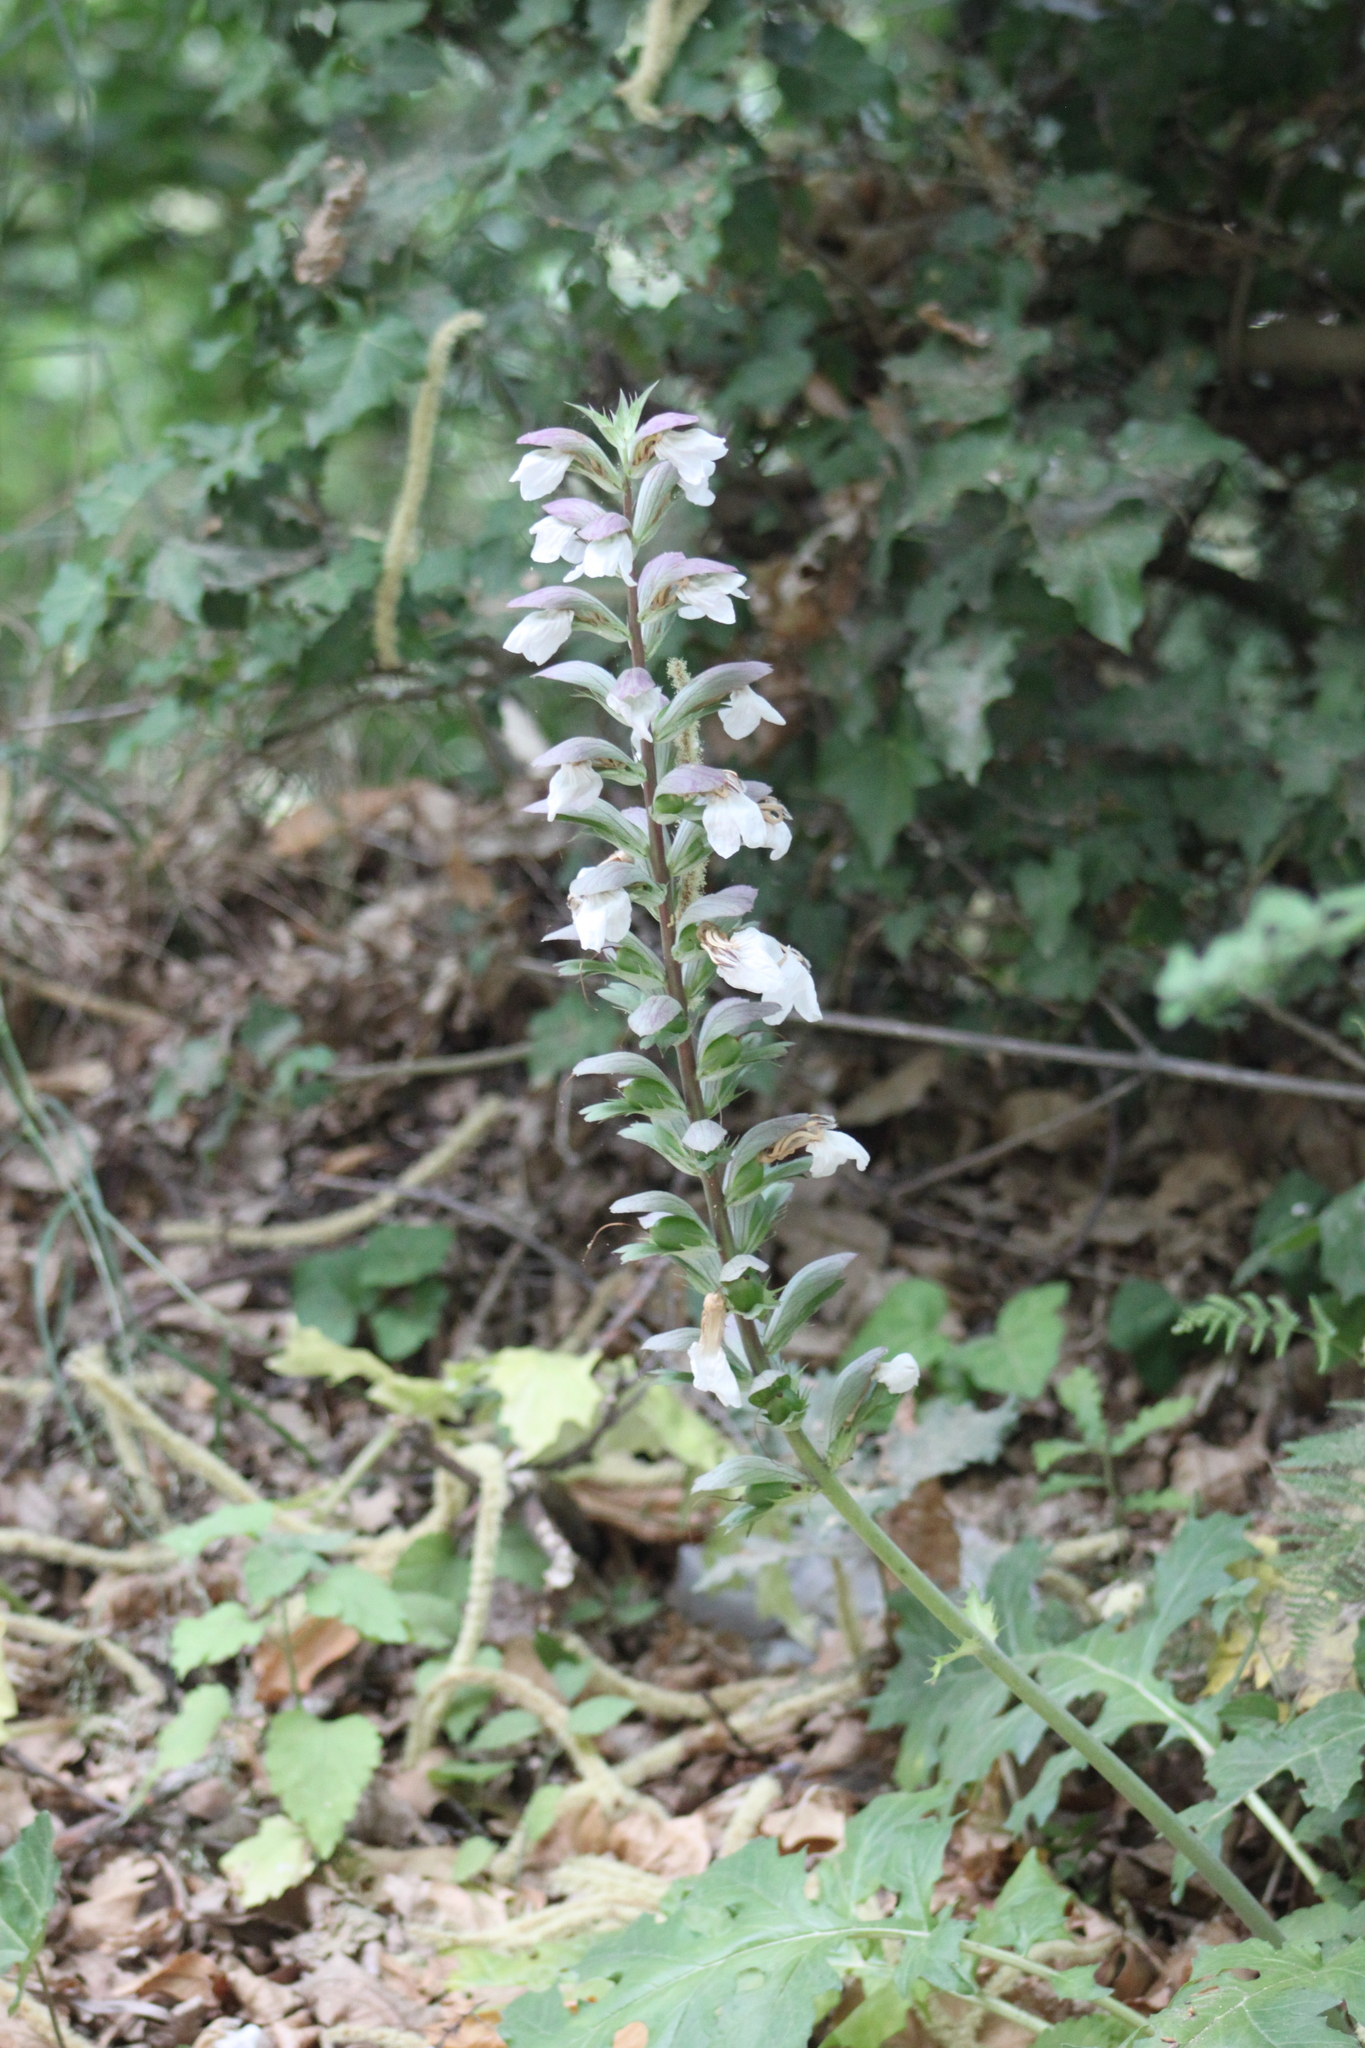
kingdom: Plantae
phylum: Tracheophyta
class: Magnoliopsida
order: Lamiales
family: Acanthaceae
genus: Acanthus
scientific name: Acanthus mollis
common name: Bear's-breech
